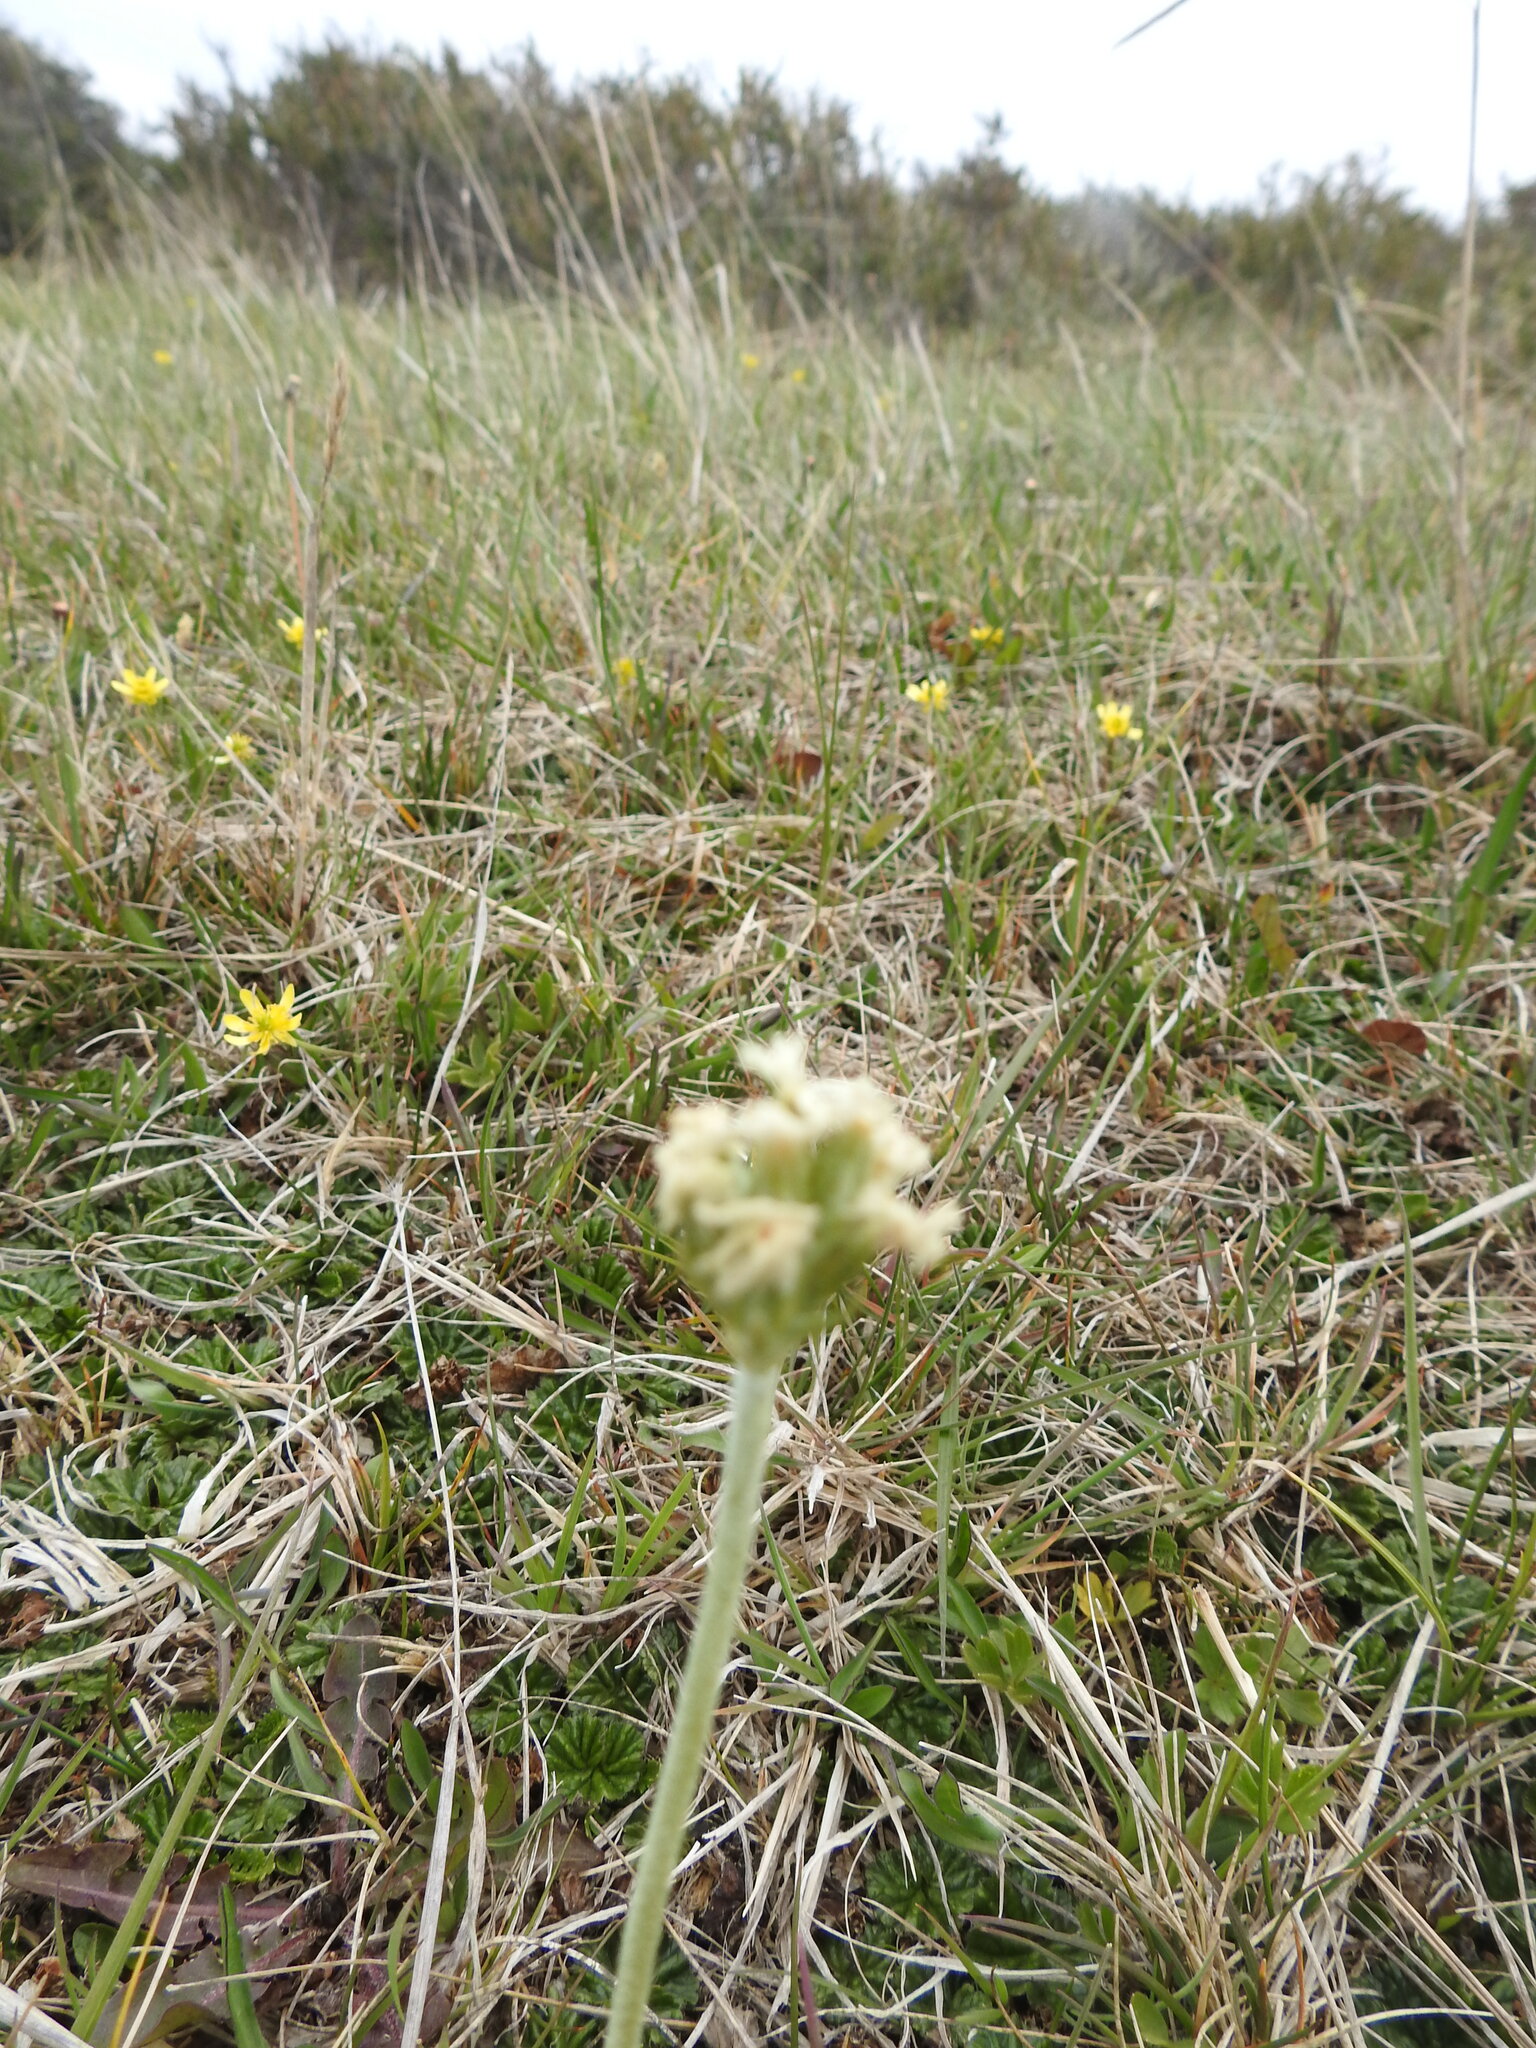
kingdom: Plantae
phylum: Tracheophyta
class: Magnoliopsida
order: Ericales
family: Primulaceae
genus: Primula
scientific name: Primula magellanica
